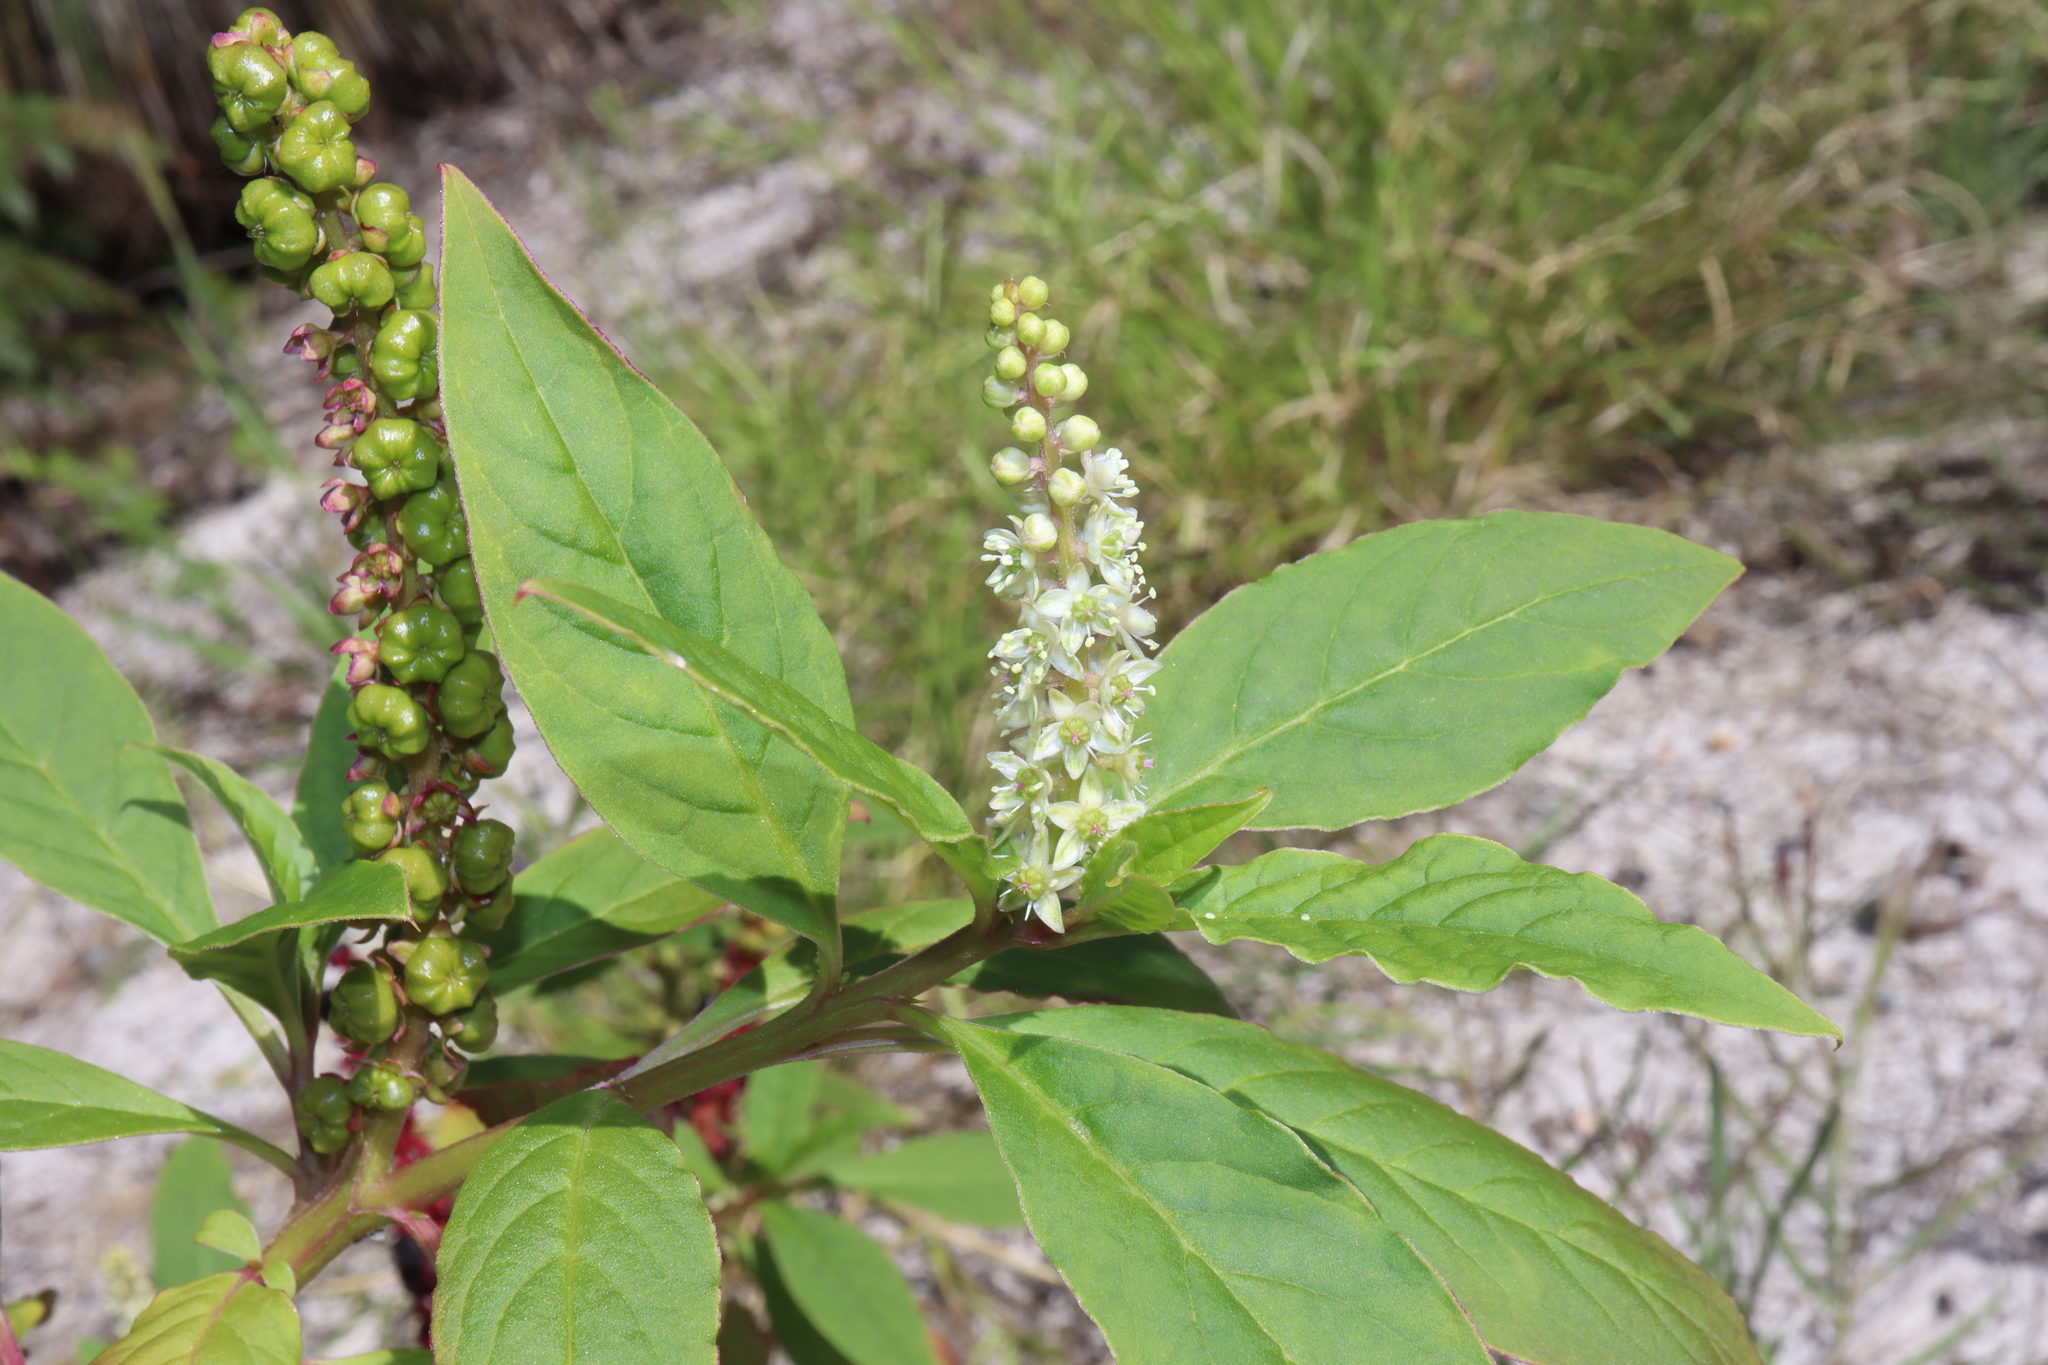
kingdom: Plantae
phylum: Tracheophyta
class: Magnoliopsida
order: Caryophyllales
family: Phytolaccaceae
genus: Phytolacca
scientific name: Phytolacca icosandra
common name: Button pokeweed
